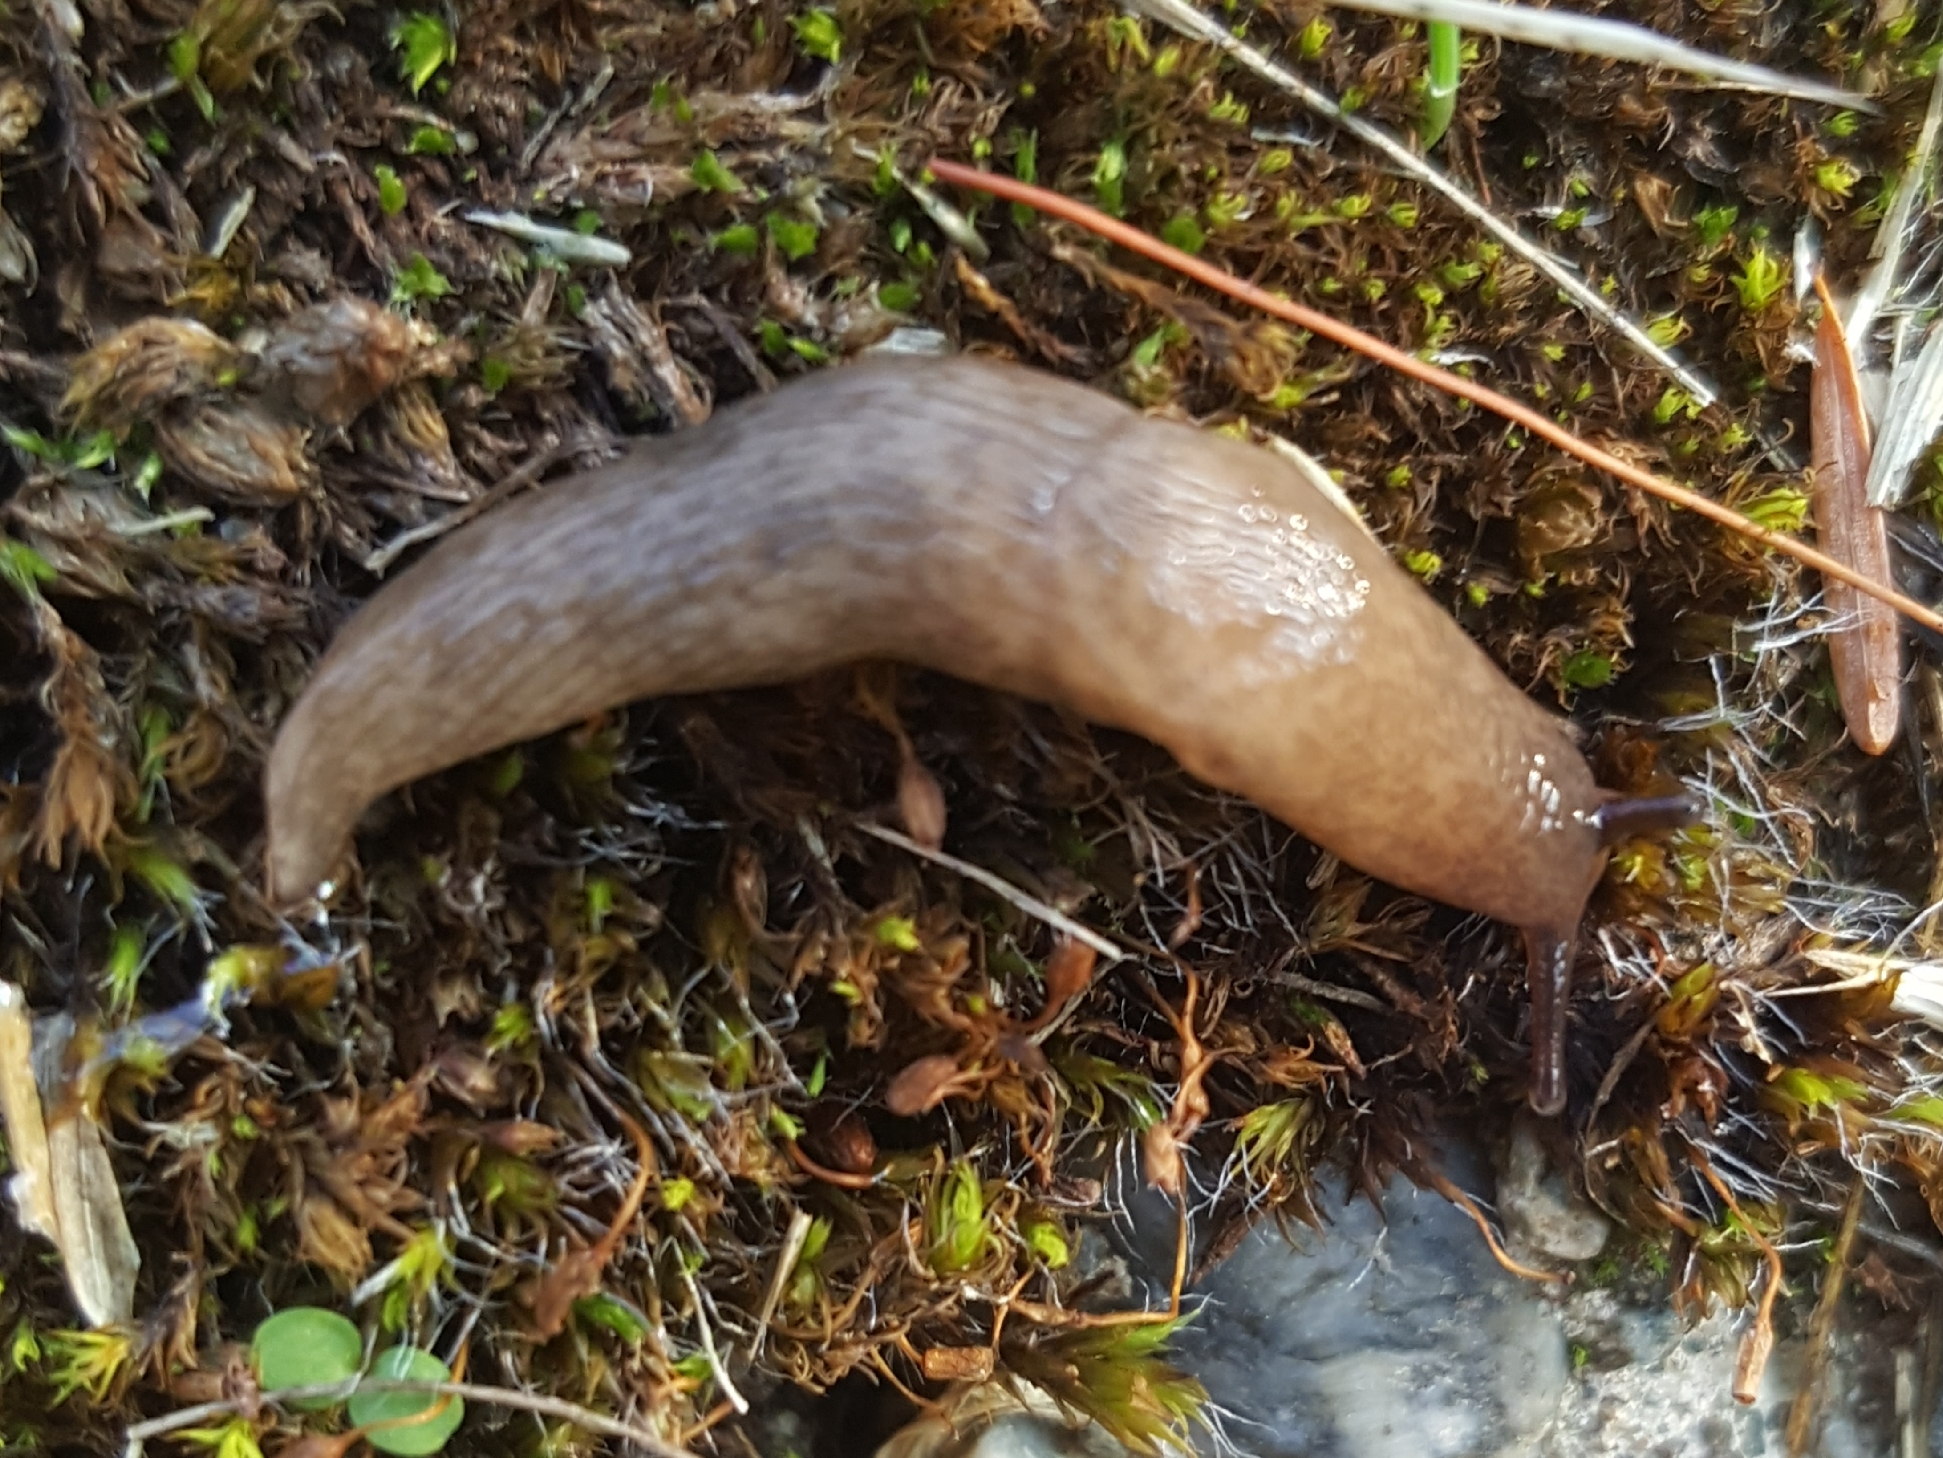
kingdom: Animalia
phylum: Mollusca
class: Gastropoda
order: Stylommatophora
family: Agriolimacidae
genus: Deroceras
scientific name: Deroceras reticulatum
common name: Gray field slug
